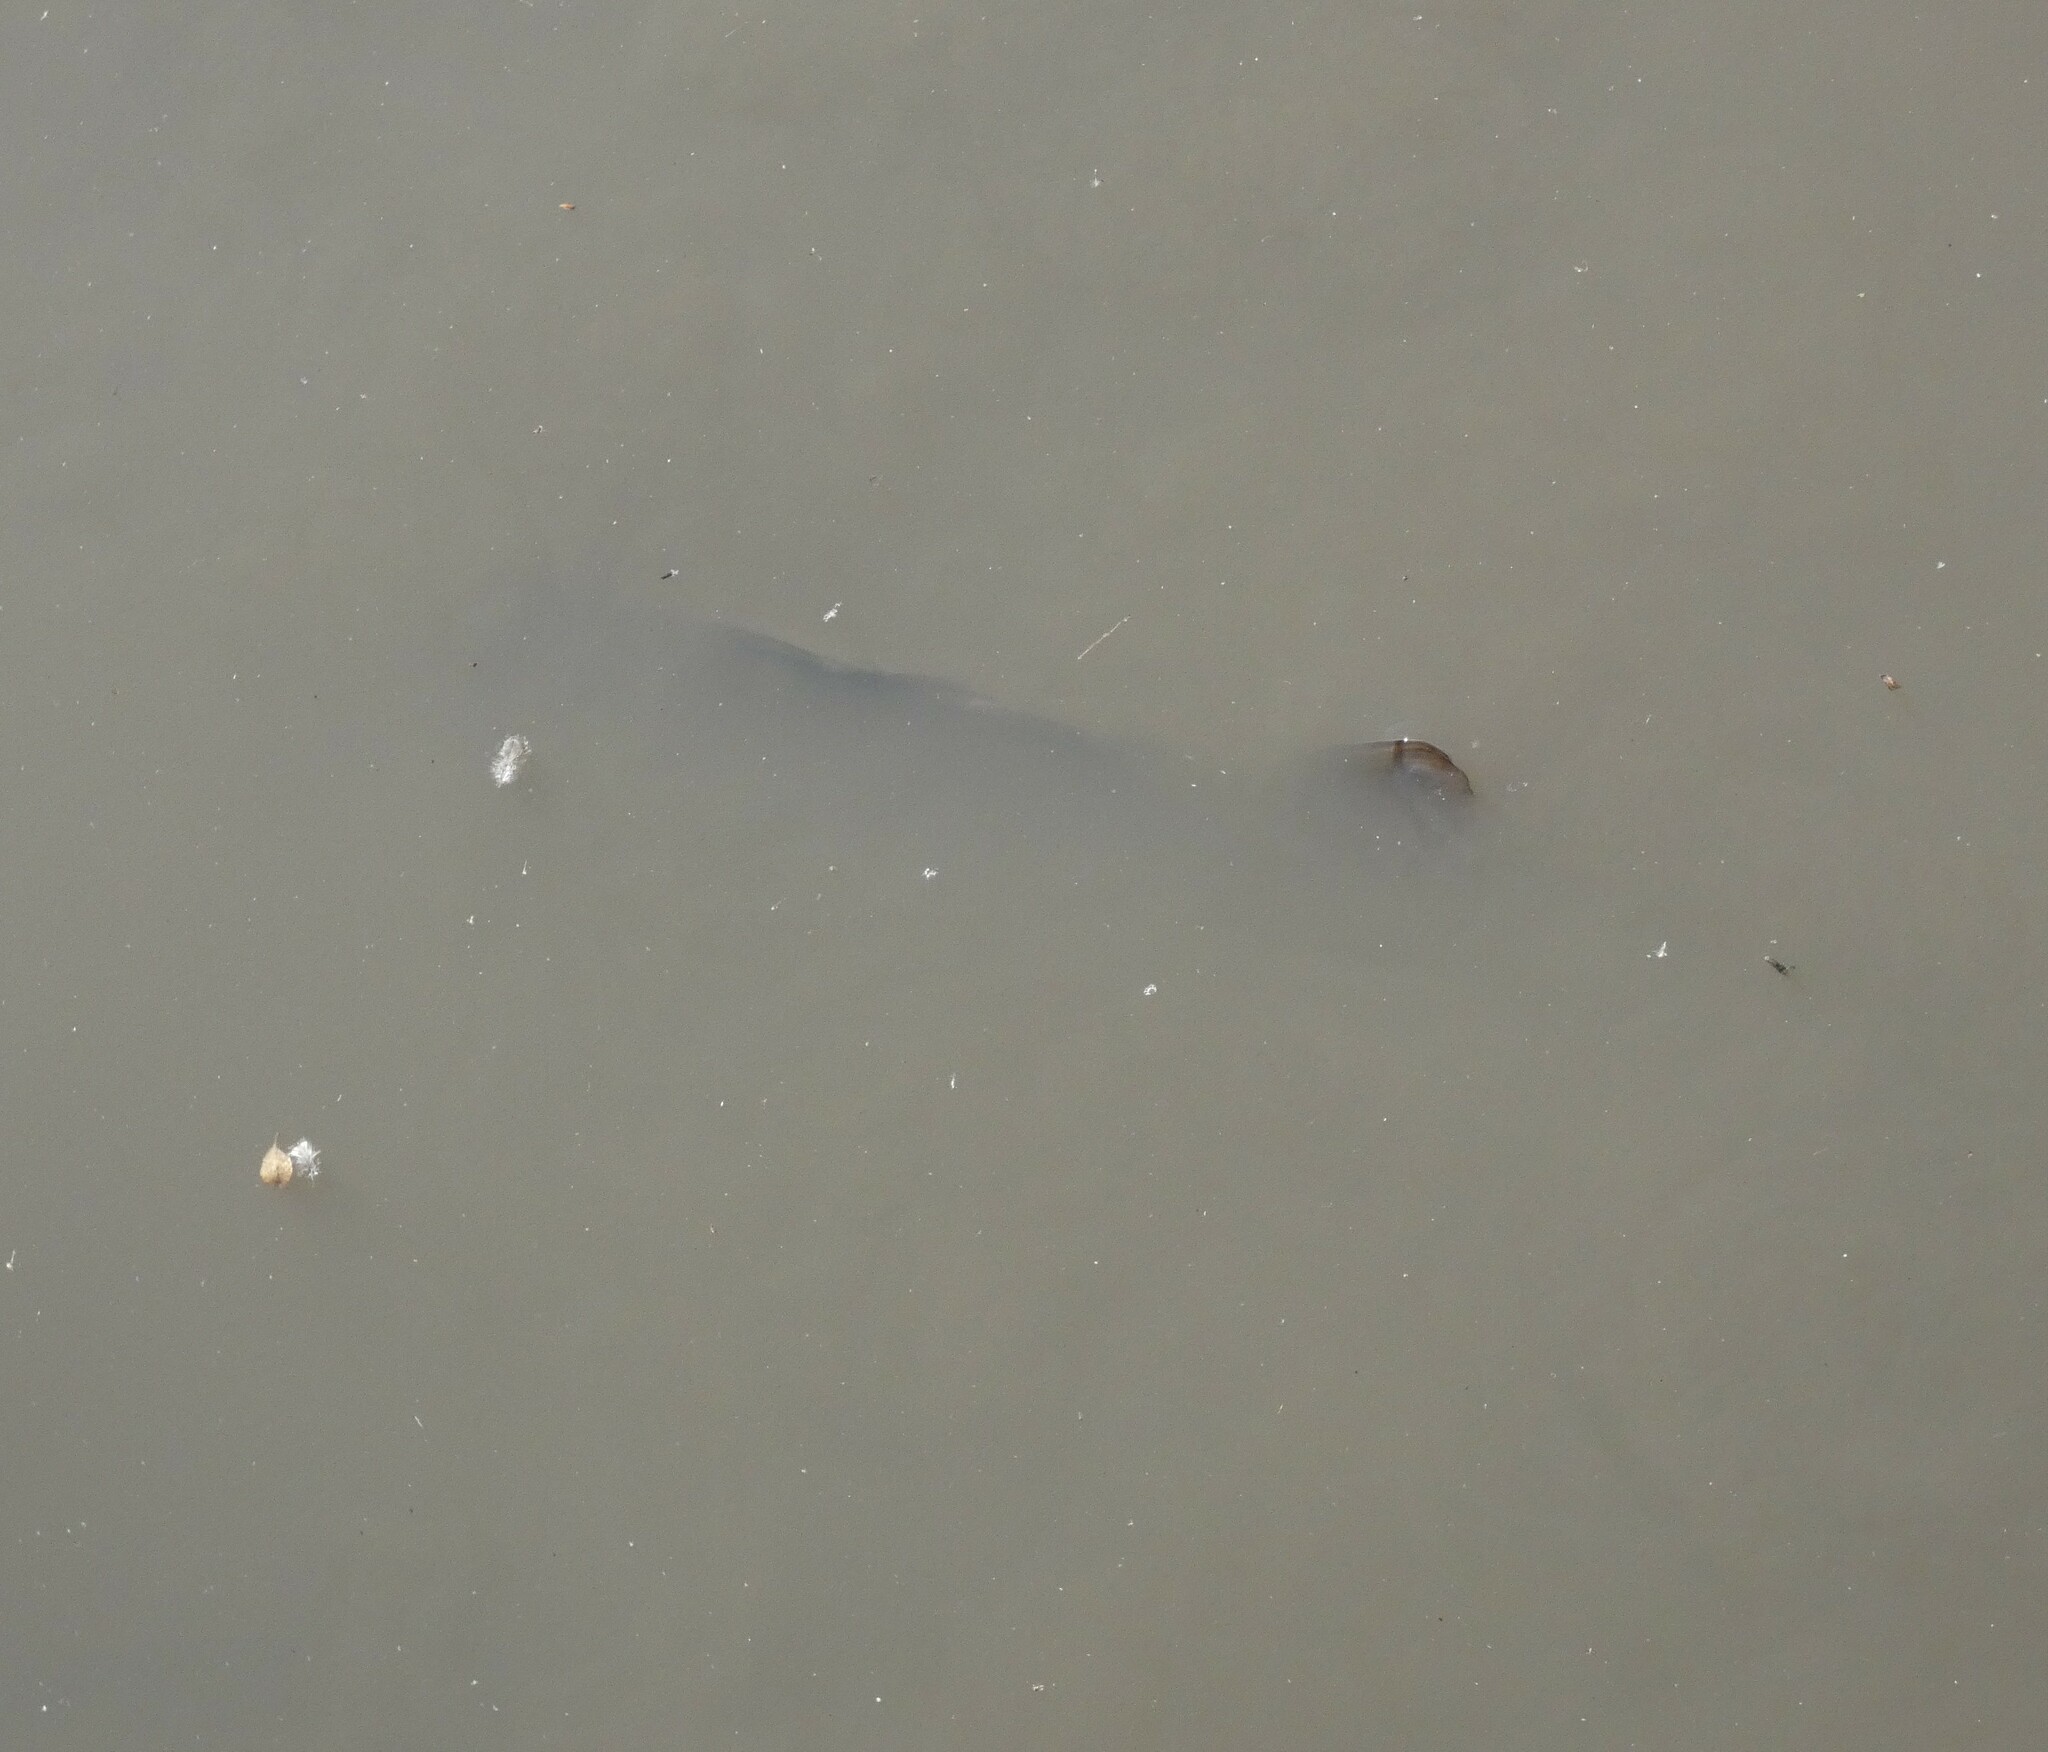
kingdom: Animalia
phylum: Chordata
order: Cypriniformes
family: Cyprinidae
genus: Cyprinus
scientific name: Cyprinus carpio
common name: Common carp
